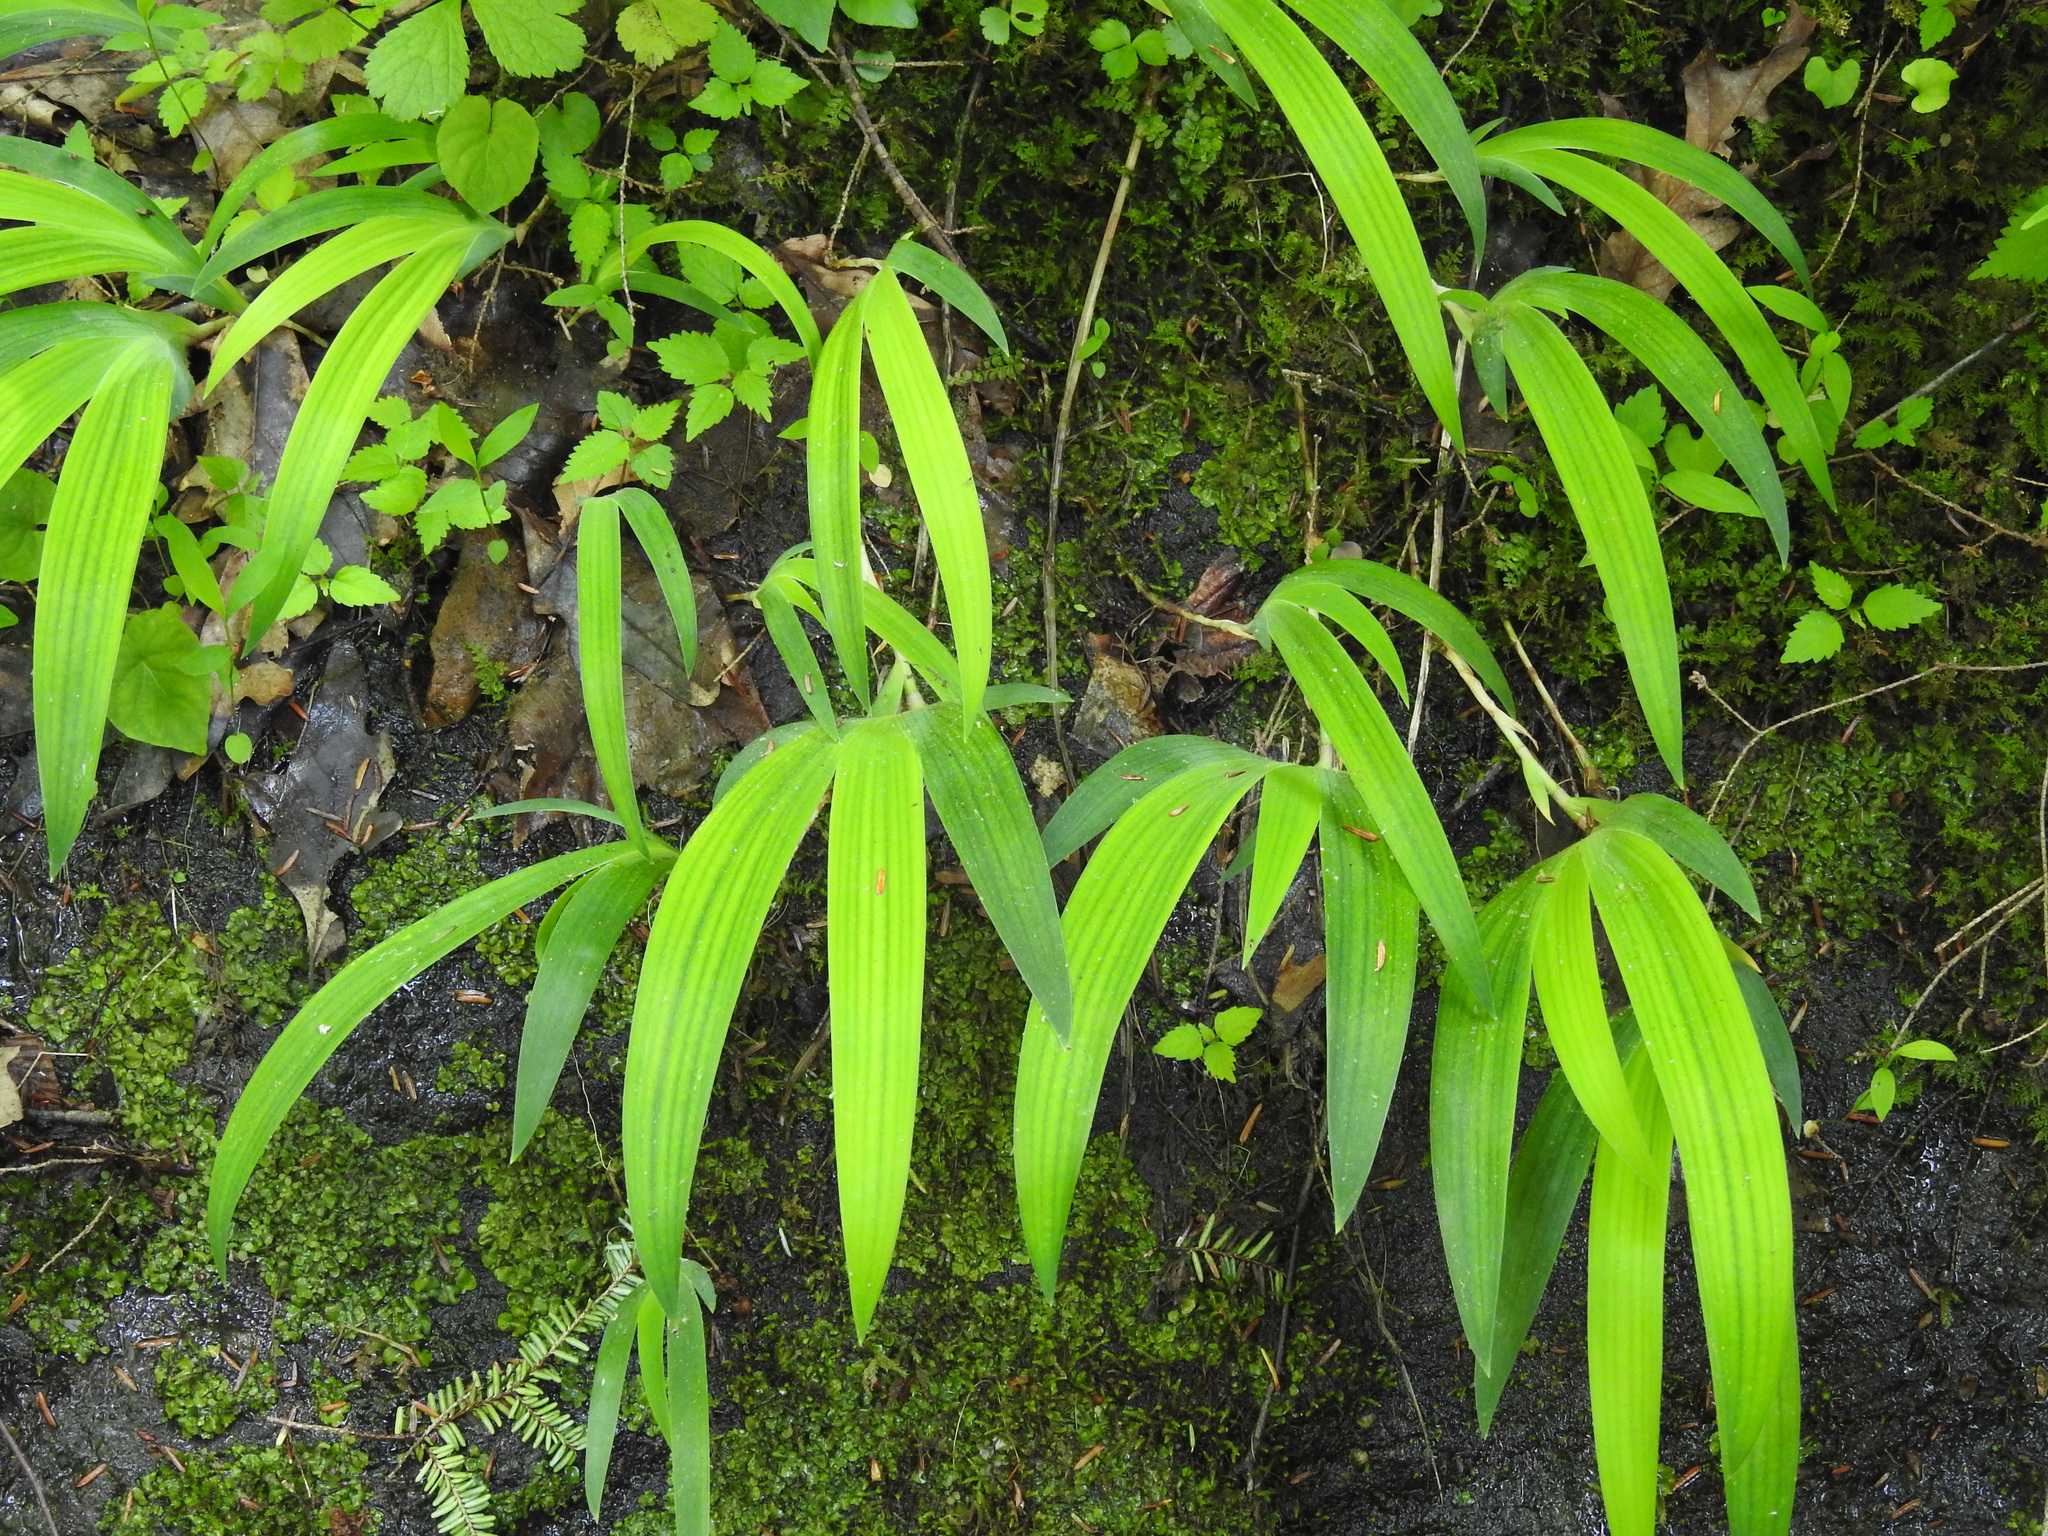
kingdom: Plantae
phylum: Tracheophyta
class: Liliopsida
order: Asparagales
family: Iridaceae
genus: Iris
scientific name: Iris cristata
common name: Crested iris
